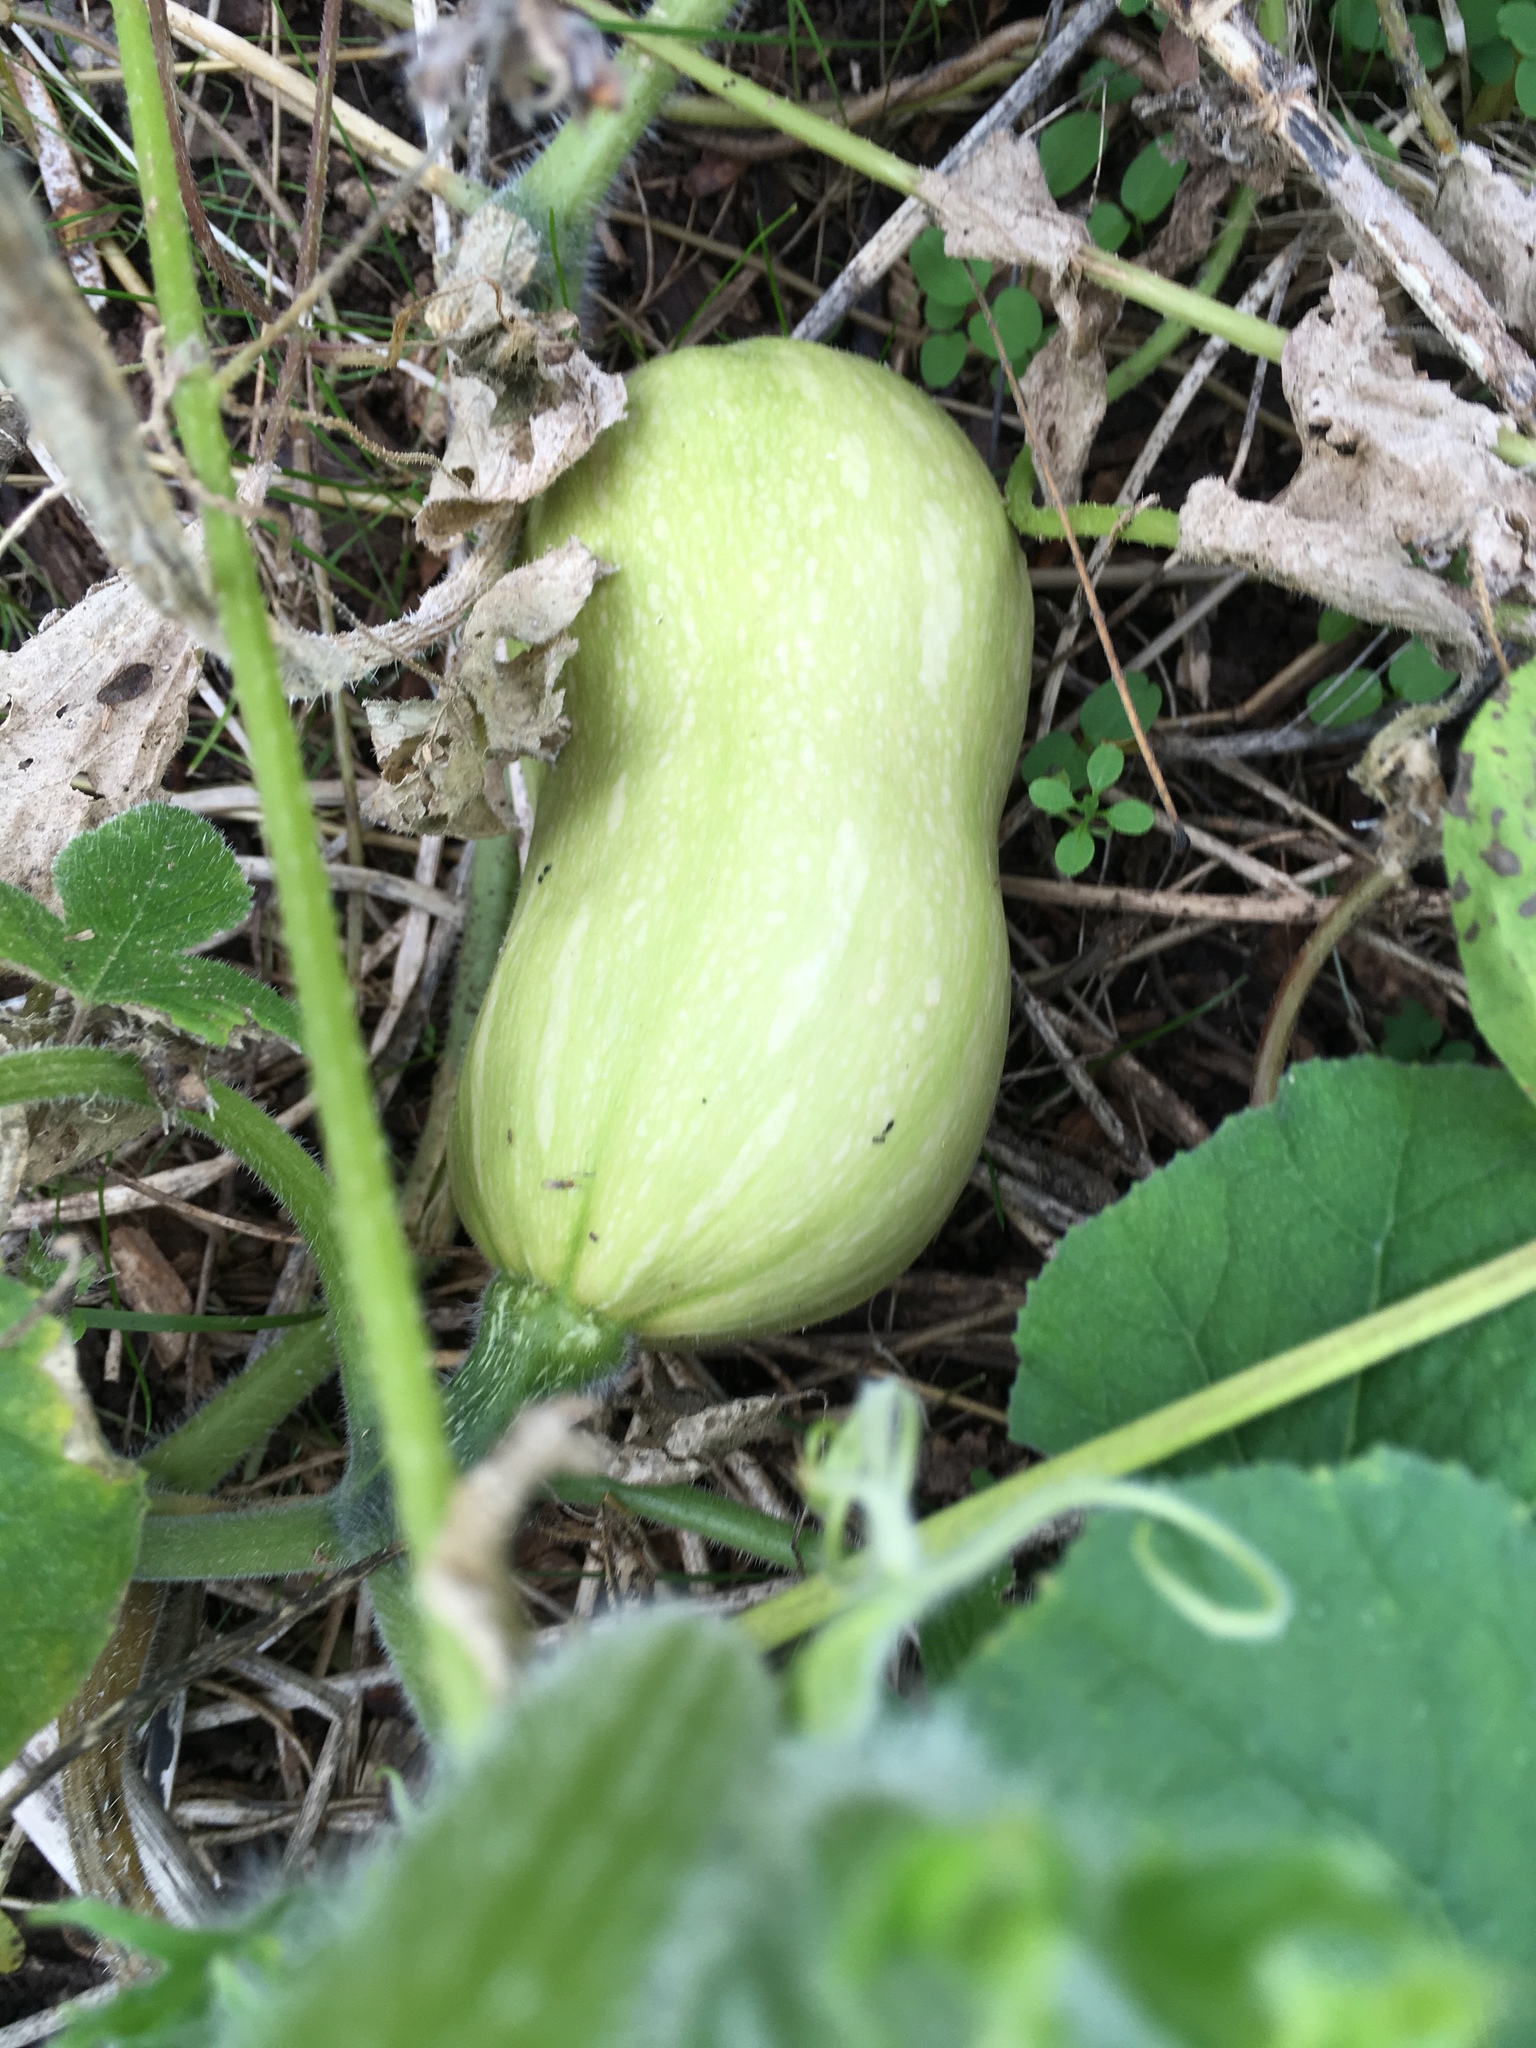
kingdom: Plantae
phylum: Tracheophyta
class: Magnoliopsida
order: Cucurbitales
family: Cucurbitaceae
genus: Cucurbita
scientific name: Cucurbita pepo
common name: Marrow
